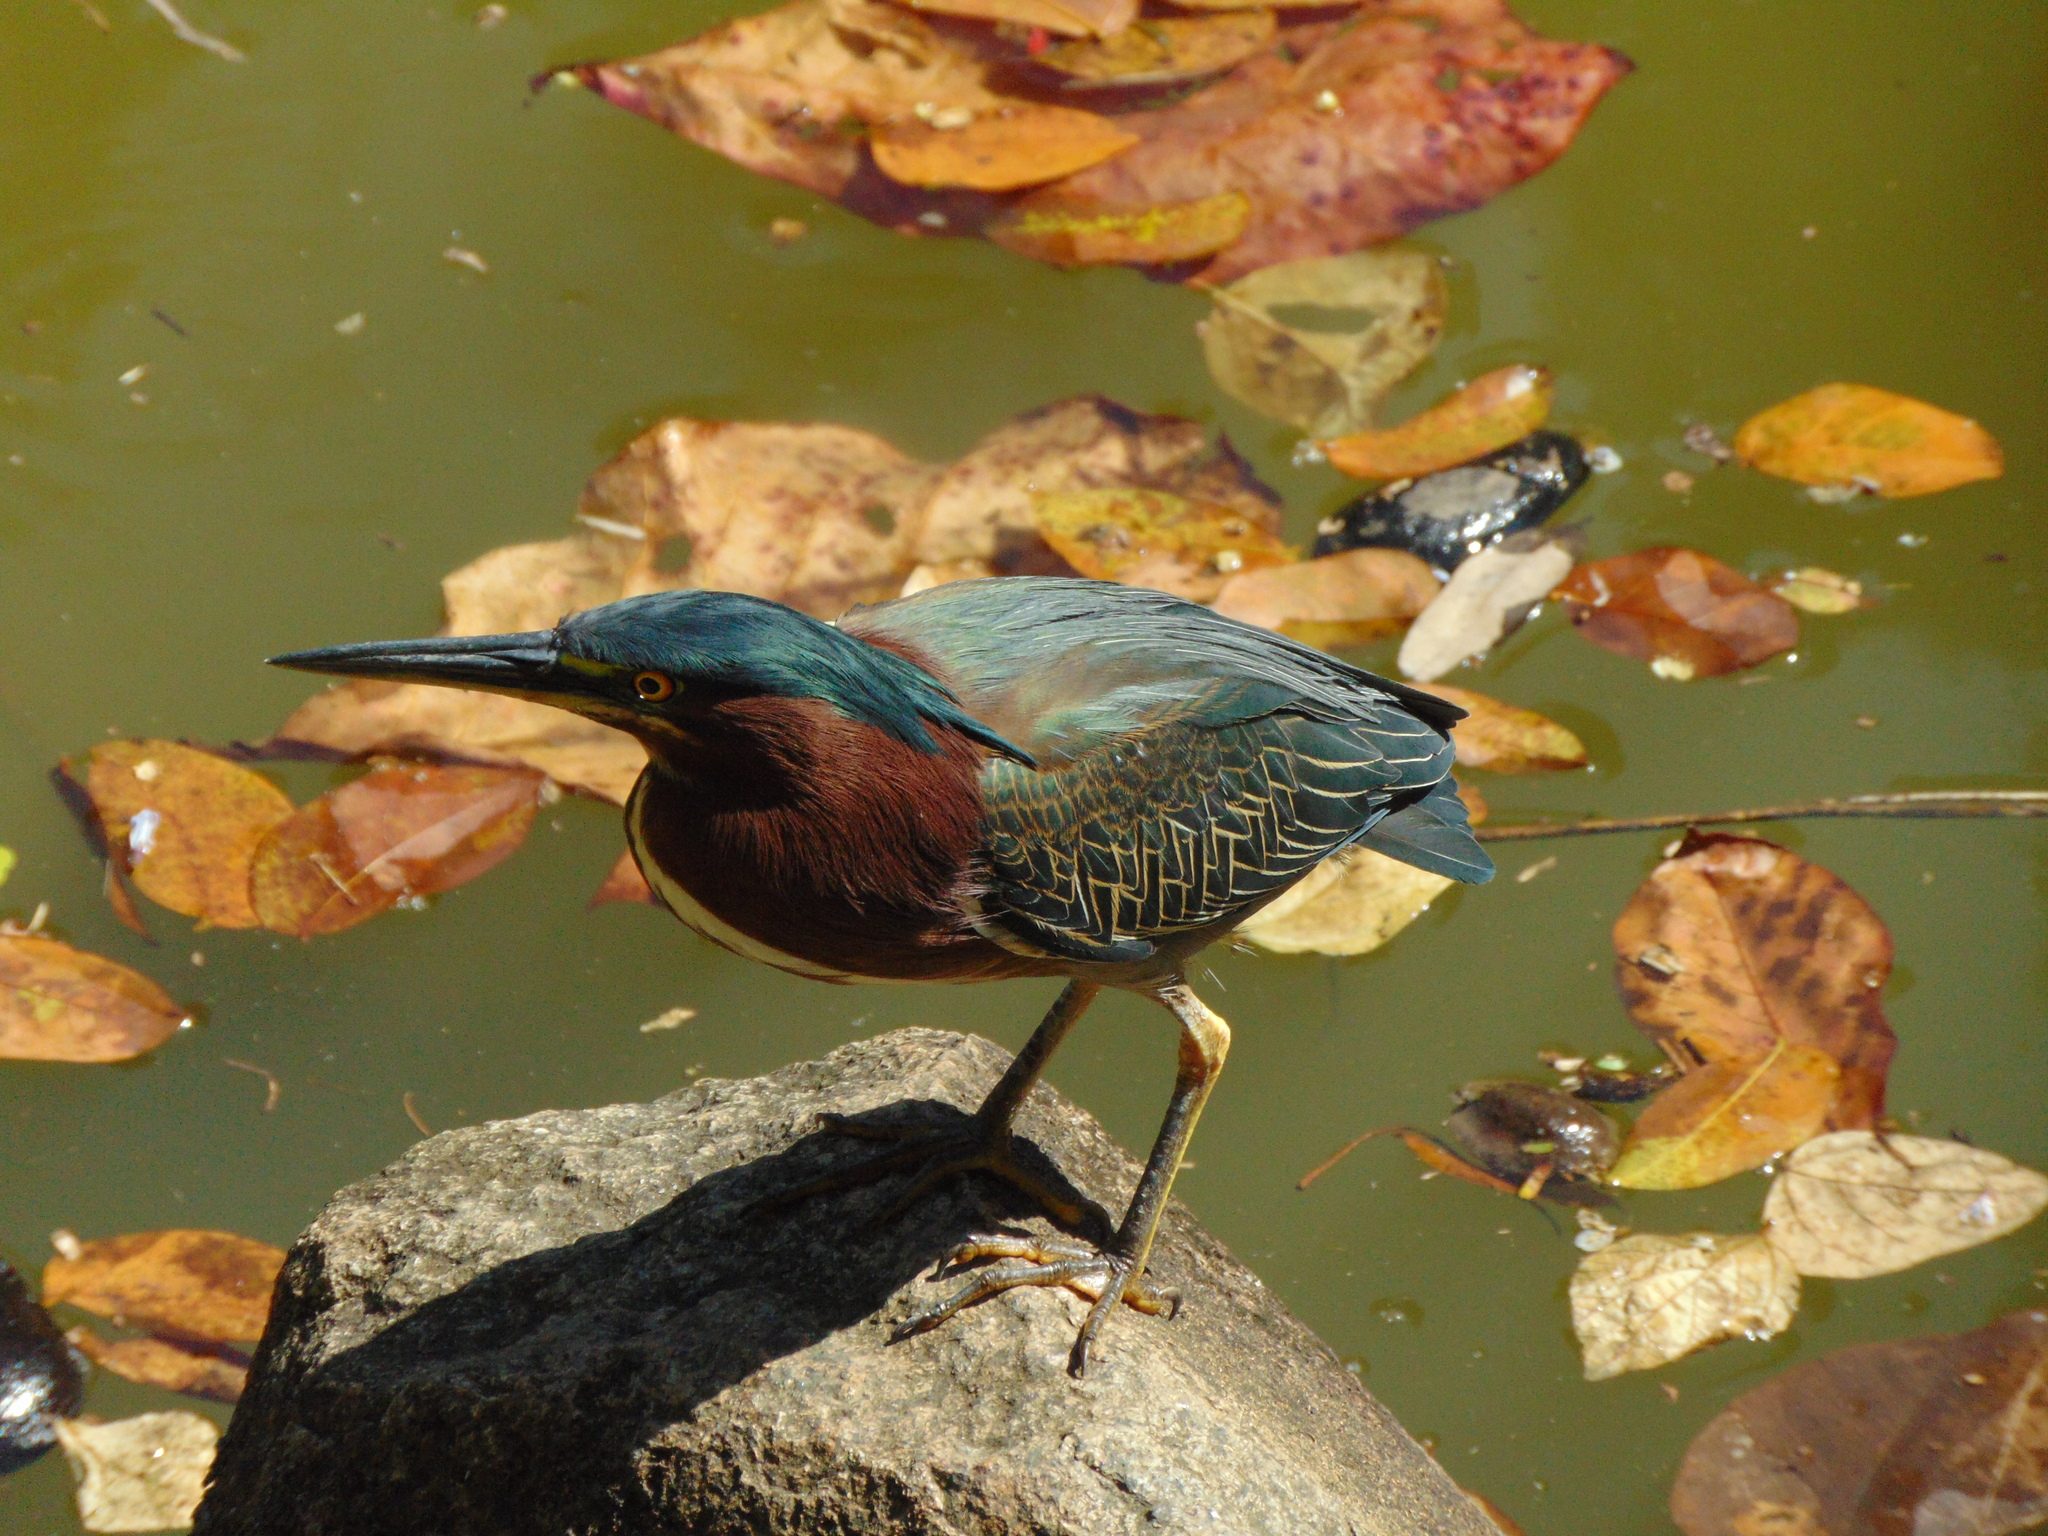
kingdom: Animalia
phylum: Chordata
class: Aves
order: Pelecaniformes
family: Ardeidae
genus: Butorides
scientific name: Butorides virescens
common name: Green heron
